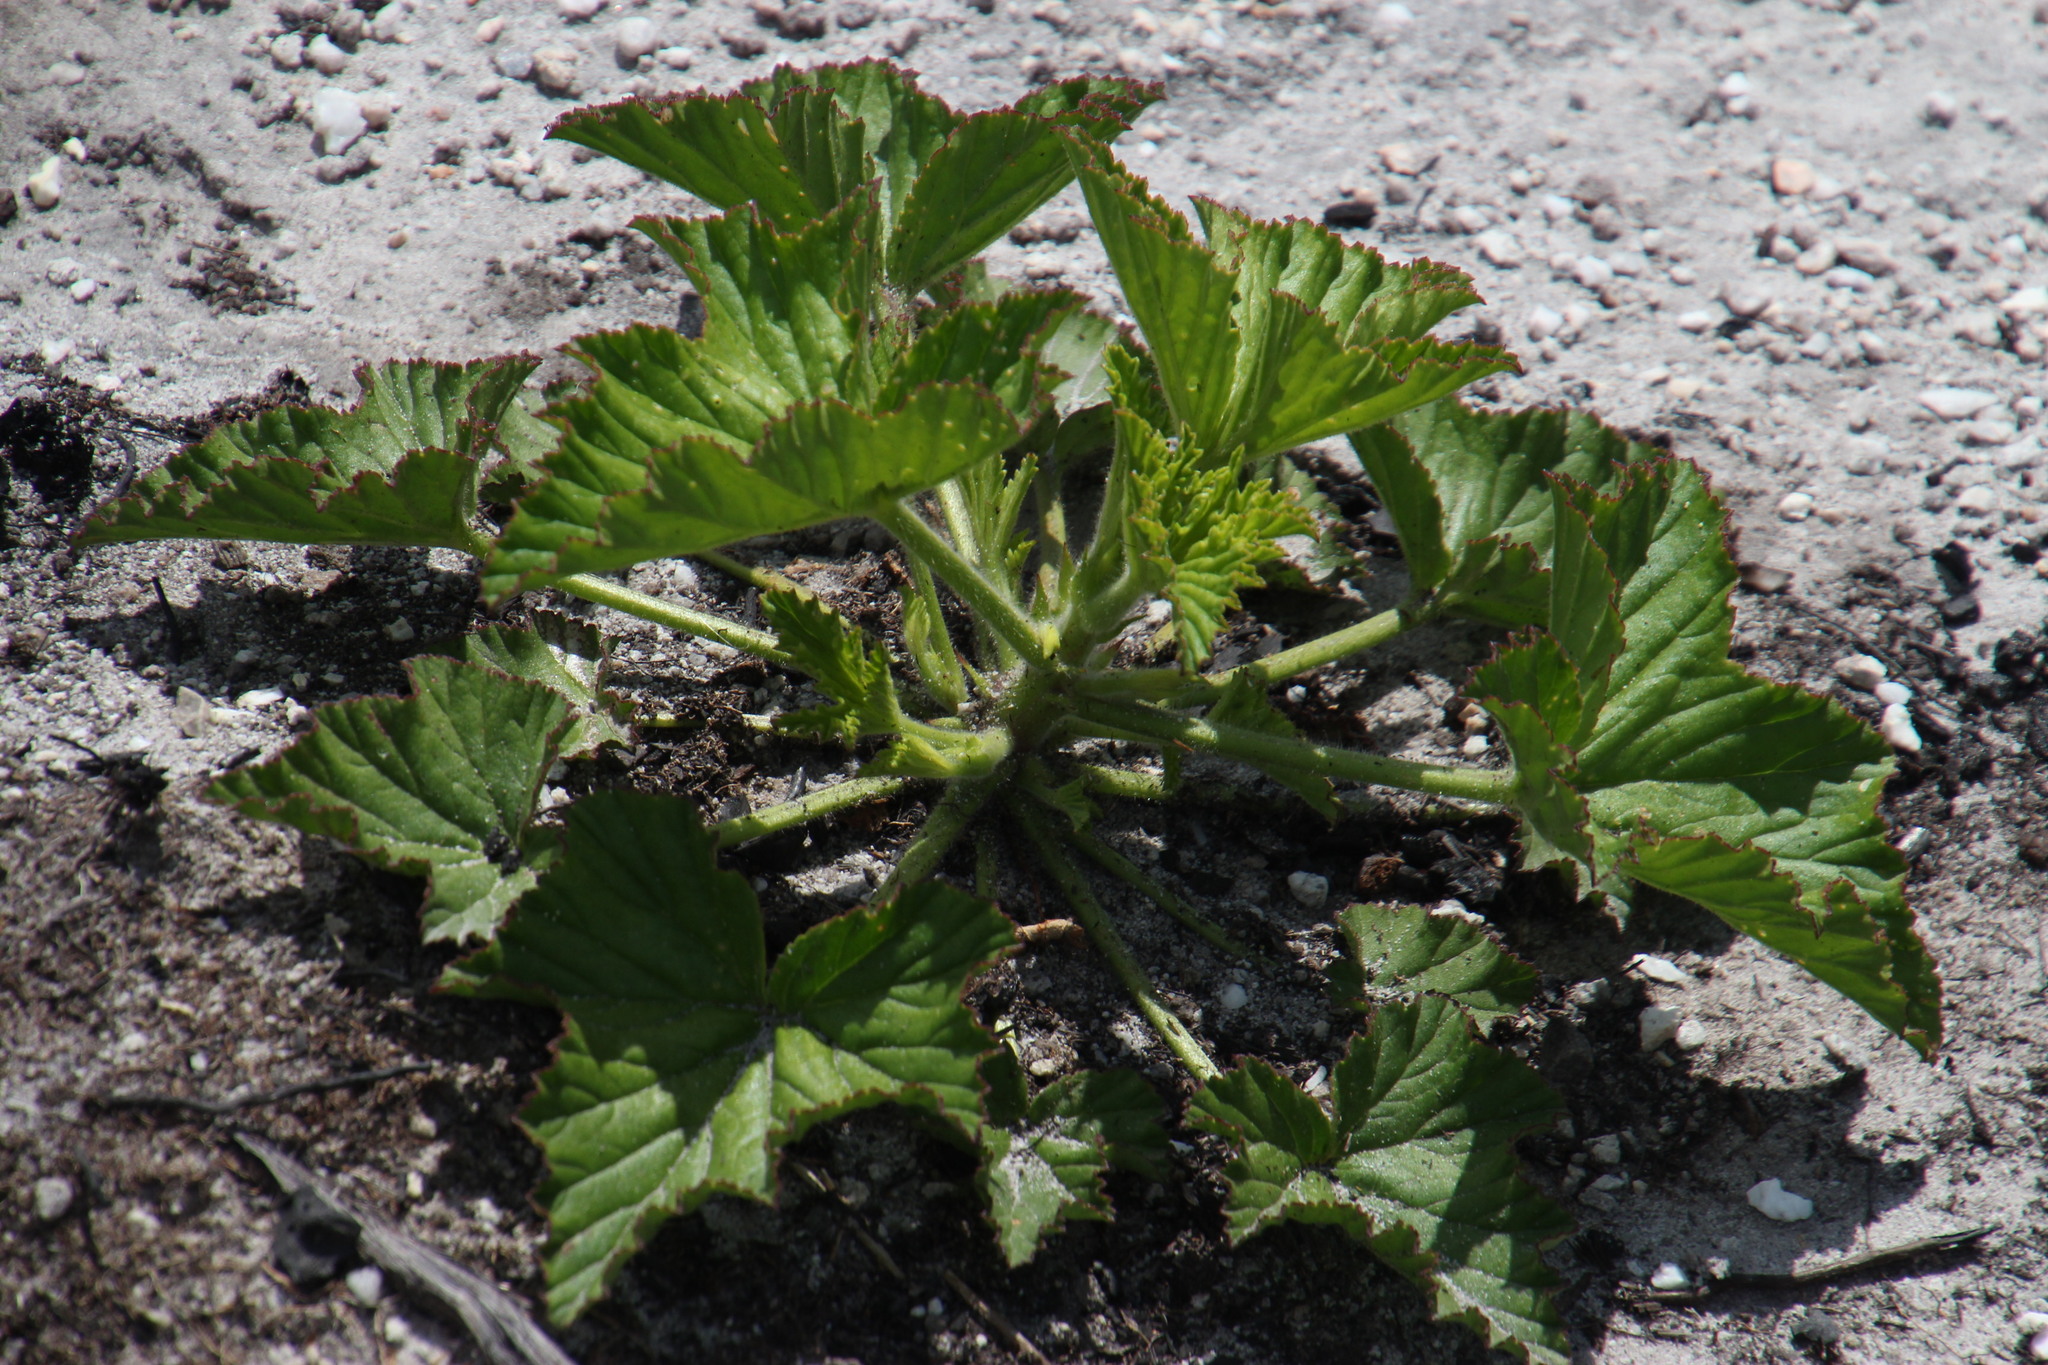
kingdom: Plantae
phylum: Tracheophyta
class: Magnoliopsida
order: Geraniales
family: Geraniaceae
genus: Pelargonium
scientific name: Pelargonium cucullatum
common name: Tree pelargonium
